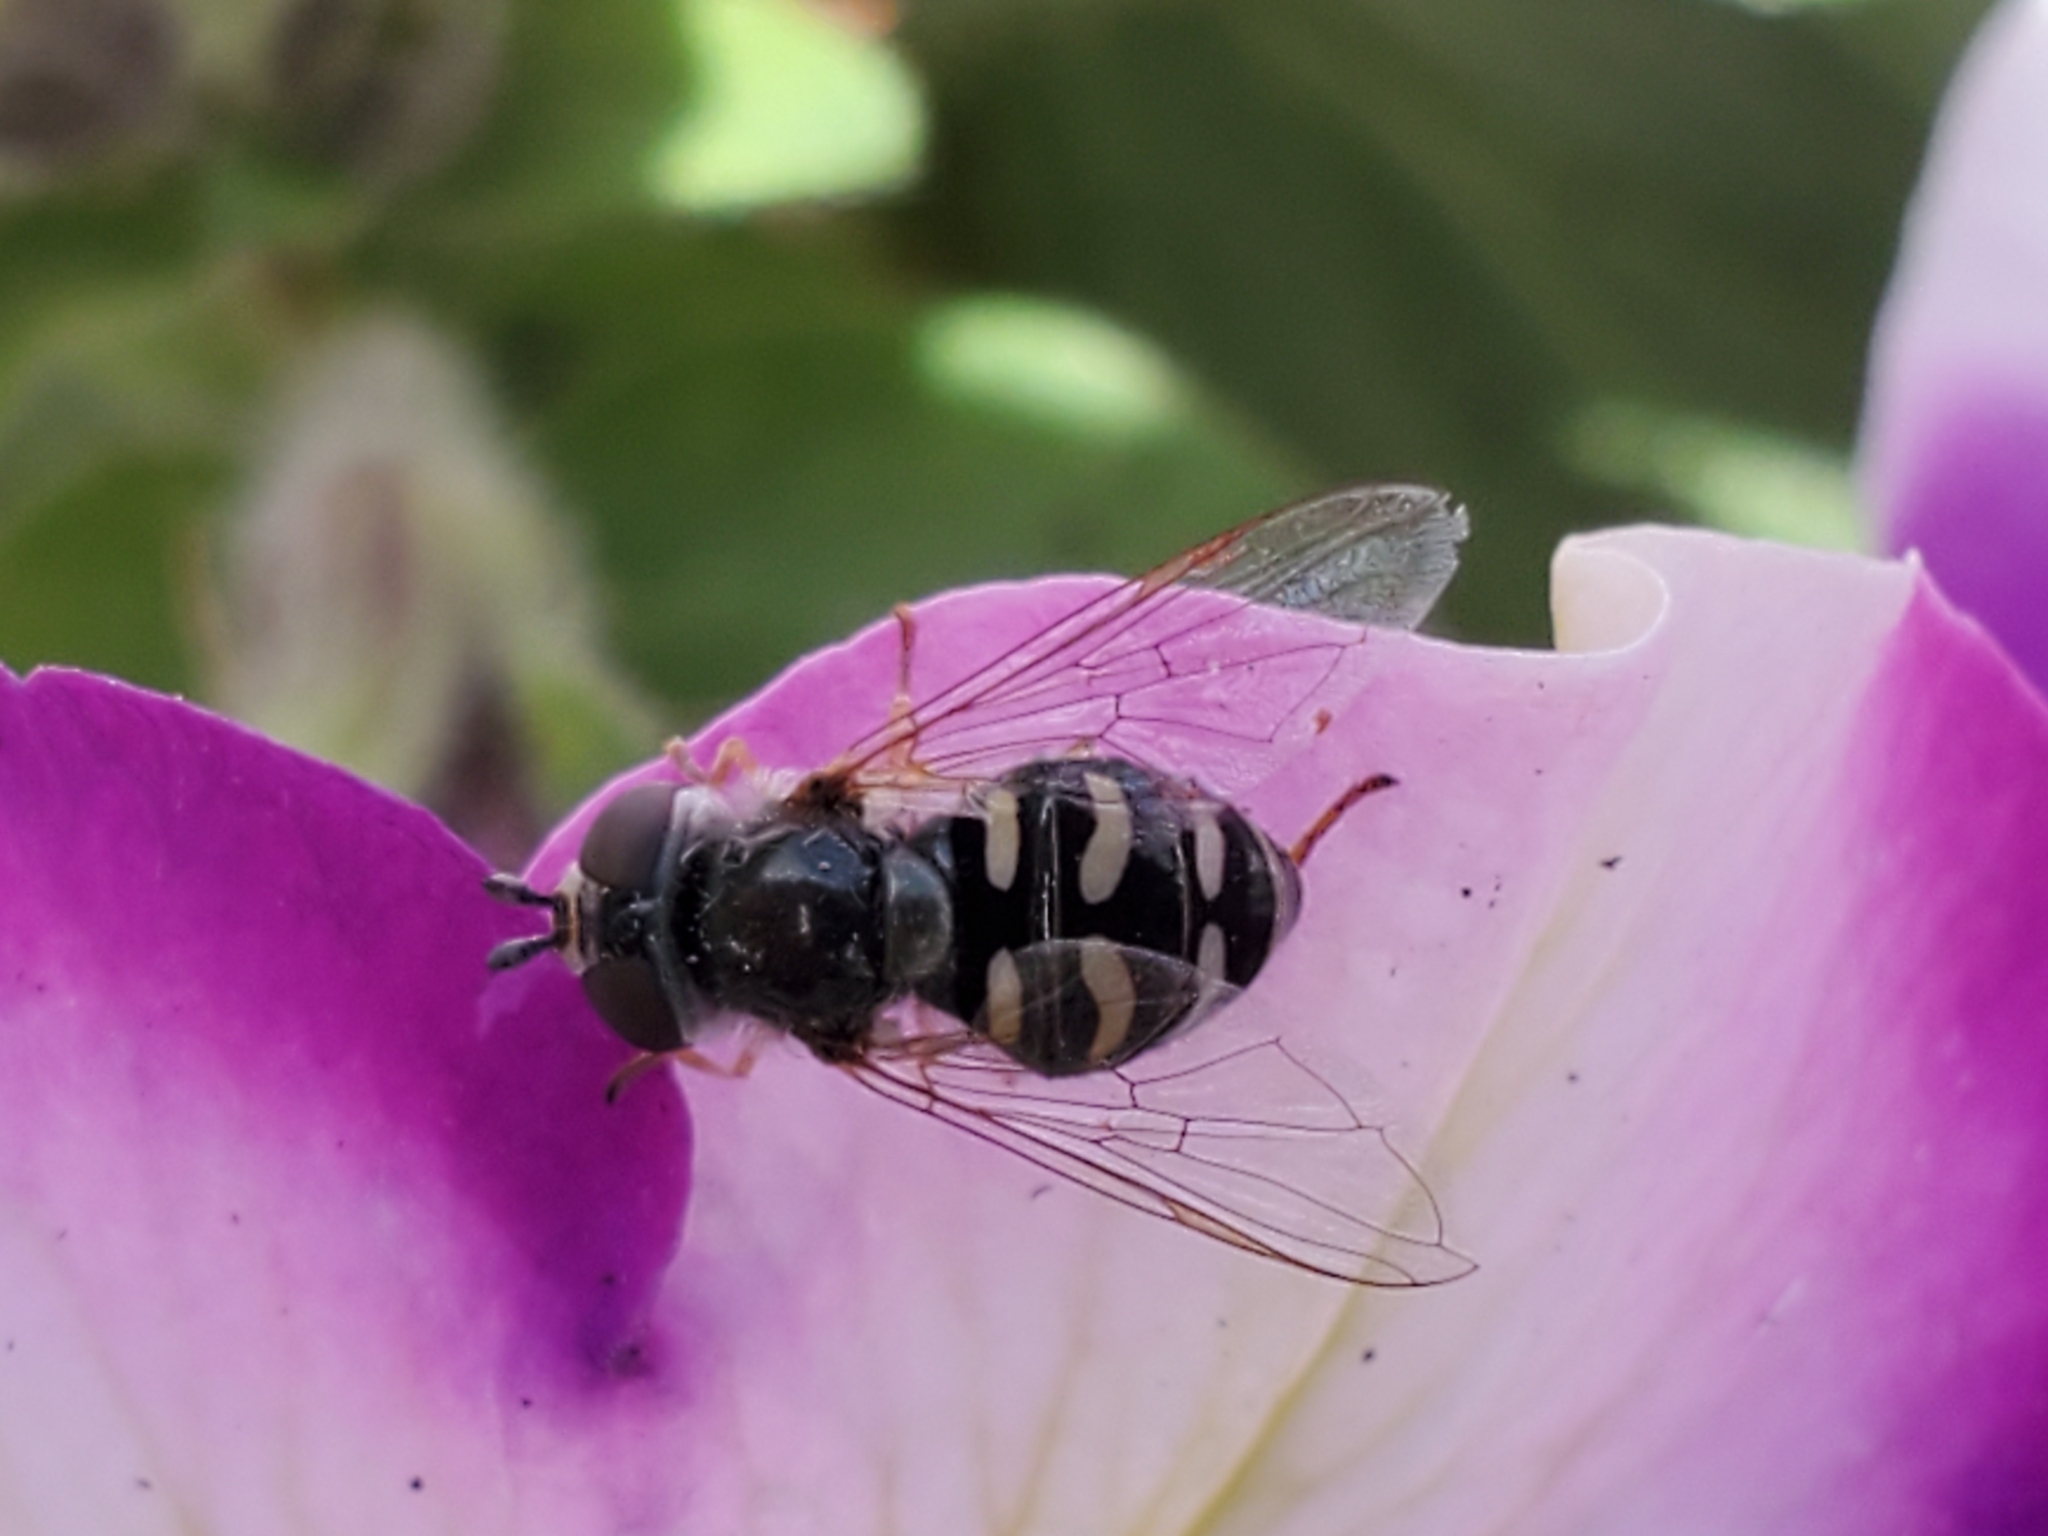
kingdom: Animalia
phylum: Arthropoda
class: Insecta
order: Diptera
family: Syrphidae
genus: Eupeodes
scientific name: Eupeodes volucris
